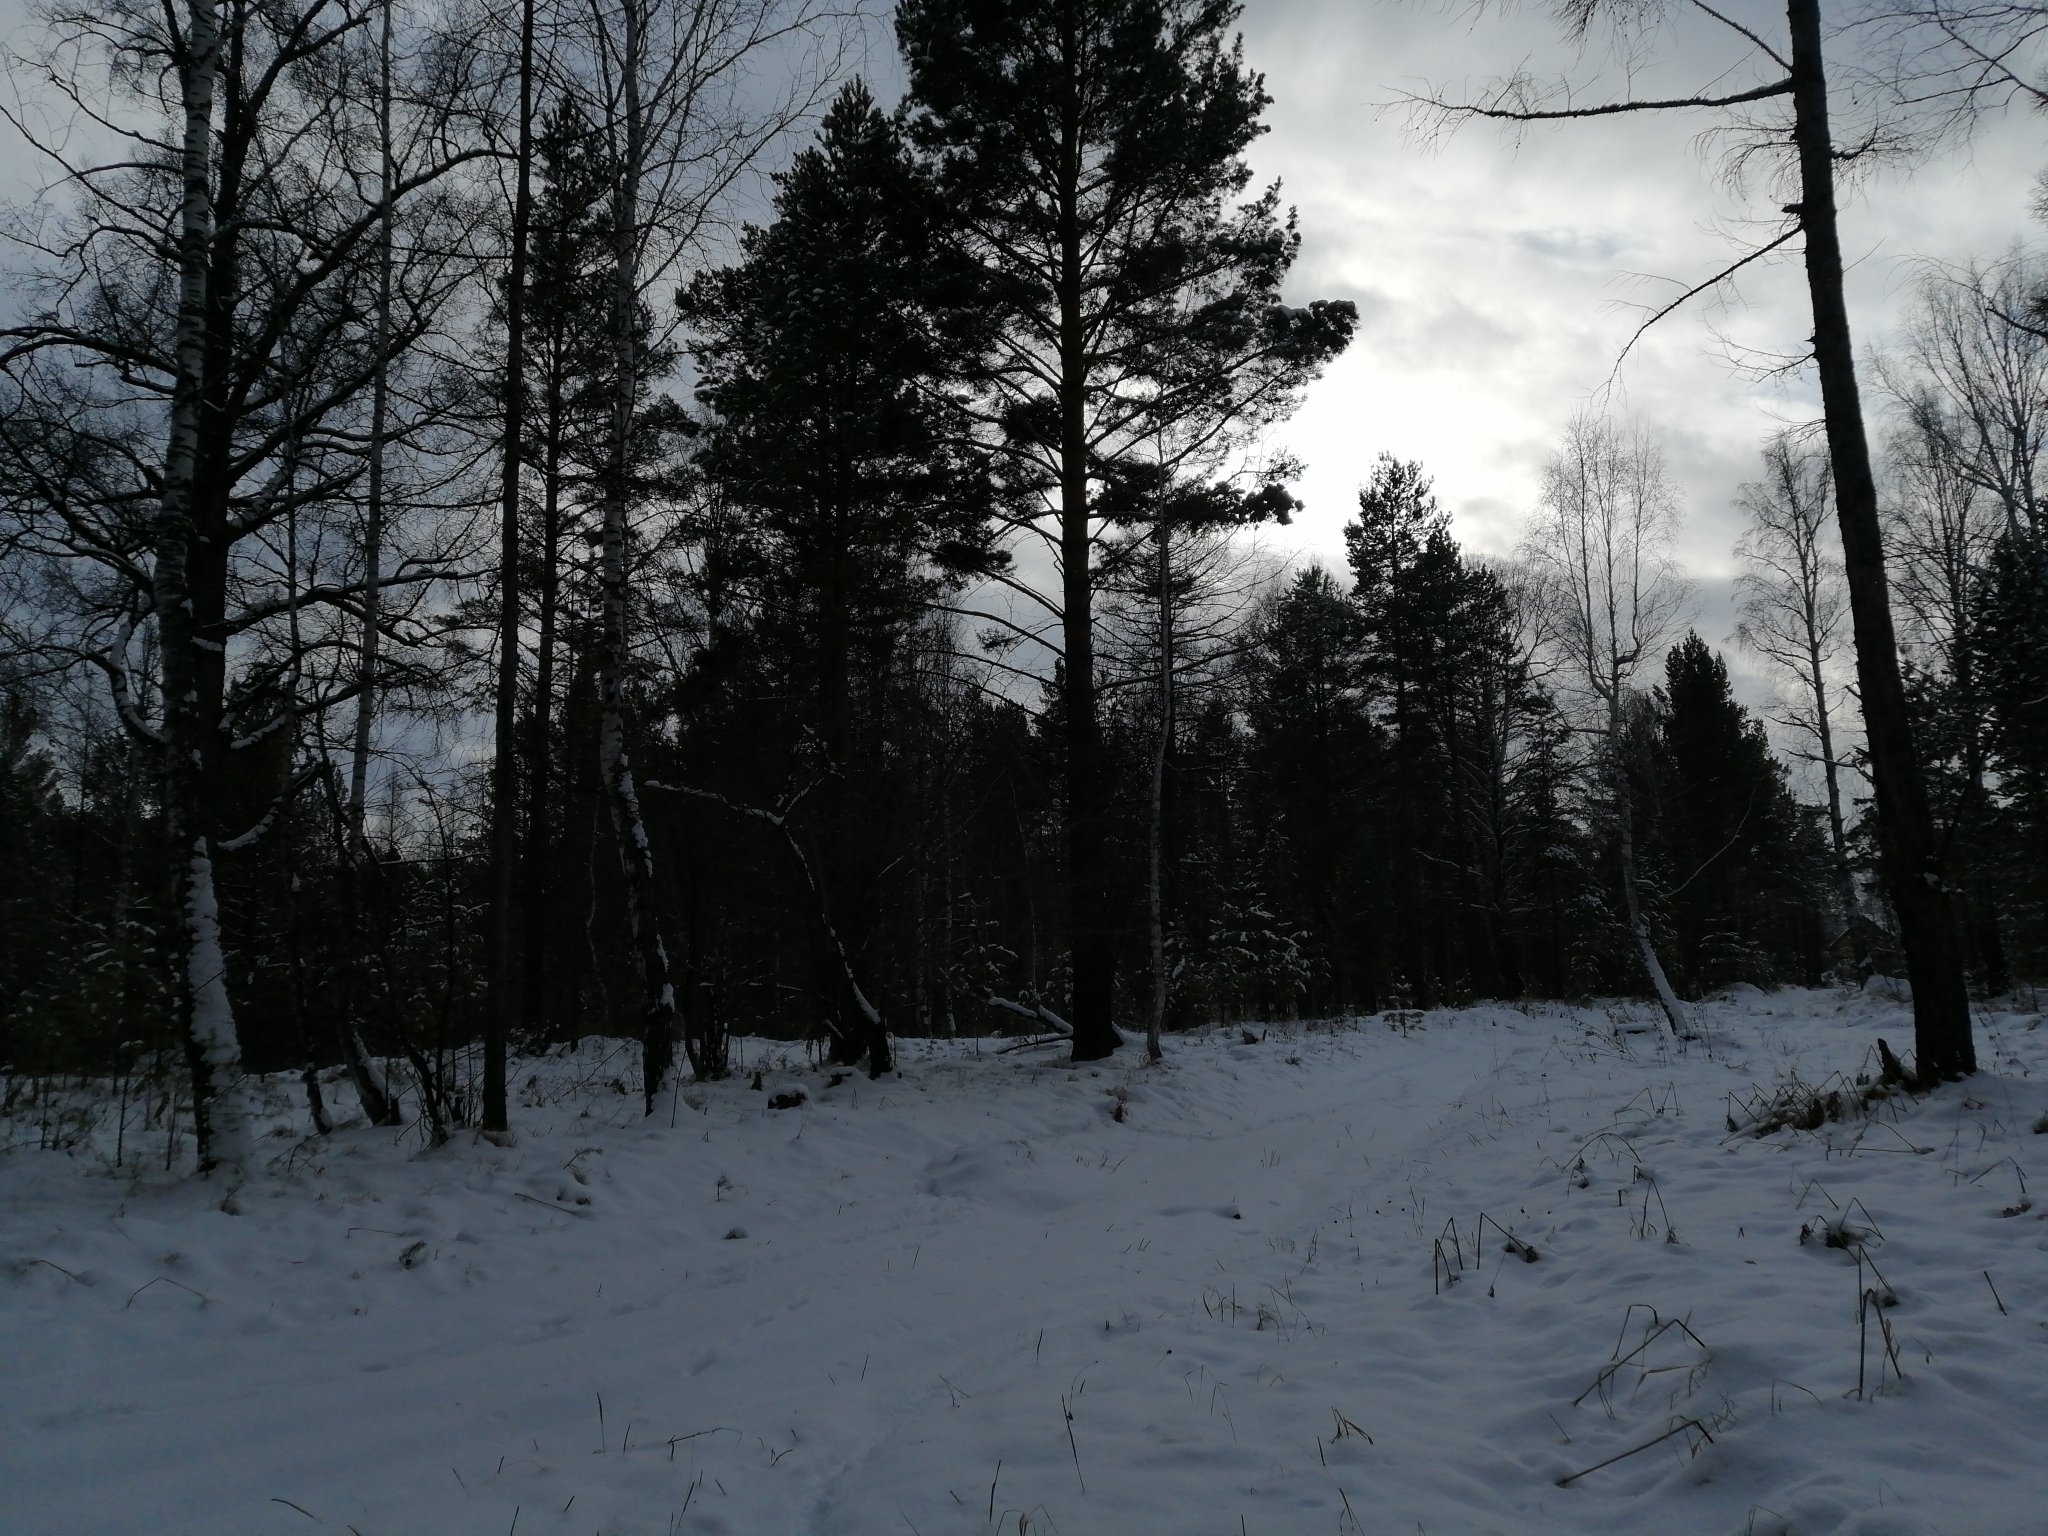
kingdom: Plantae
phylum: Tracheophyta
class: Pinopsida
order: Pinales
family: Pinaceae
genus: Pinus
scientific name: Pinus sylvestris
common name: Scots pine
